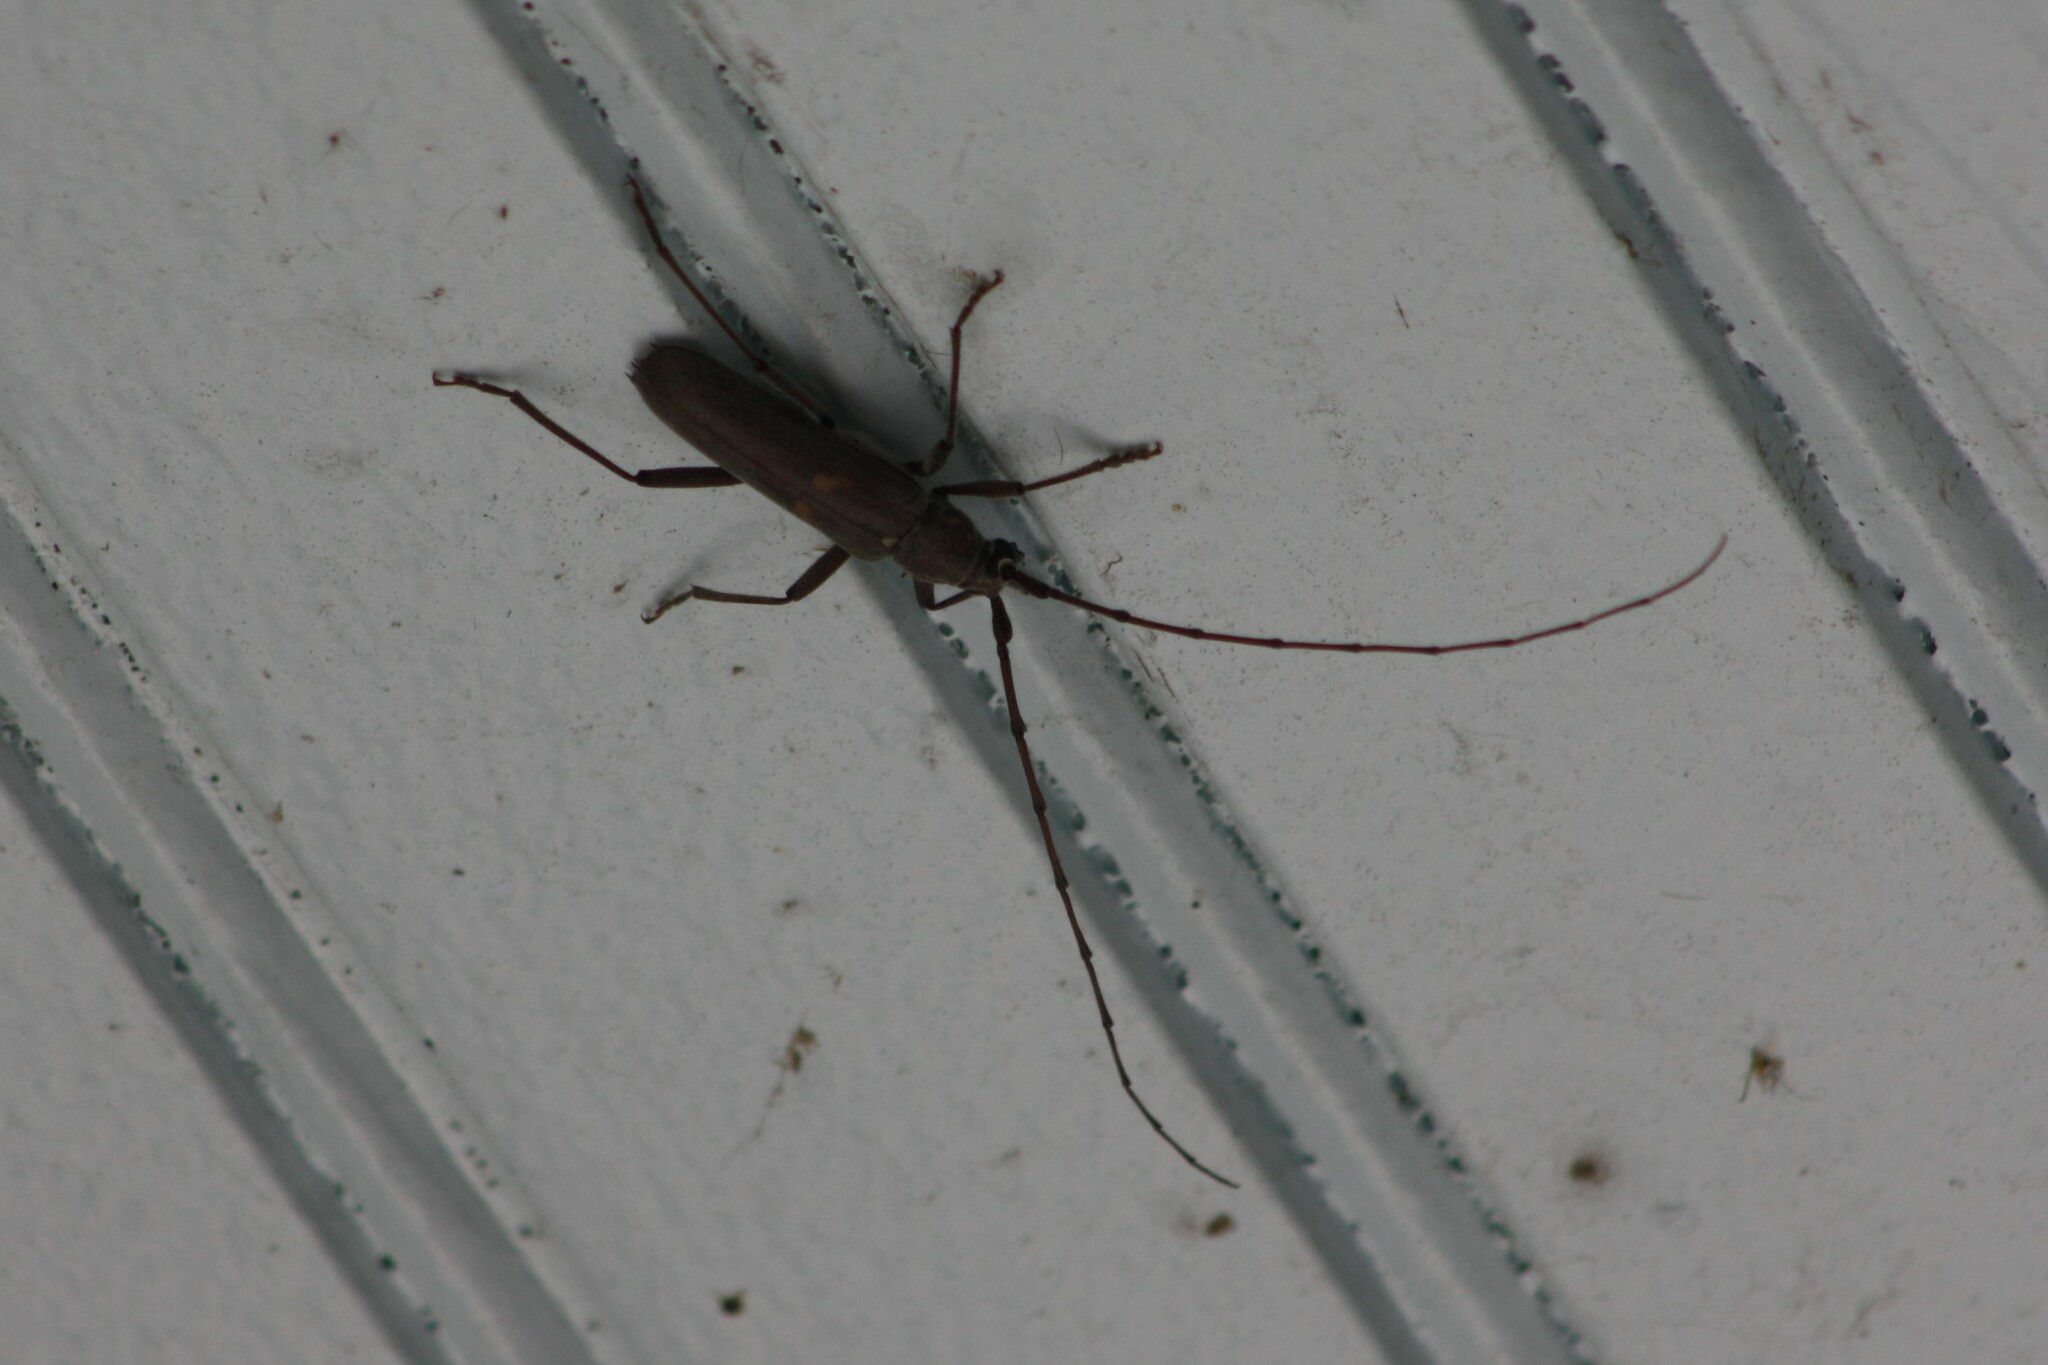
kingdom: Animalia
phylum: Arthropoda
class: Insecta
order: Coleoptera
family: Cerambycidae
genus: Knulliana
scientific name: Knulliana cincta
